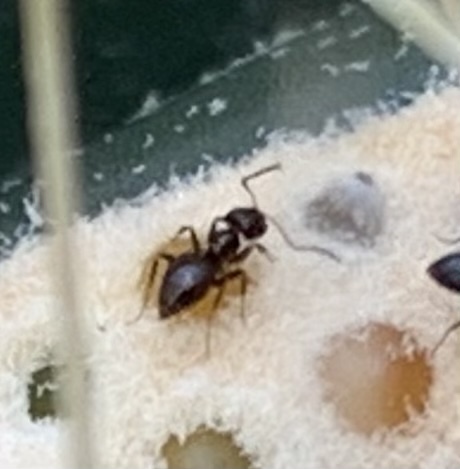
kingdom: Animalia
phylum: Arthropoda
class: Insecta
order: Hymenoptera
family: Formicidae
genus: Brachymyrmex
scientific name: Brachymyrmex patagonicus
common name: Dark rover ant
